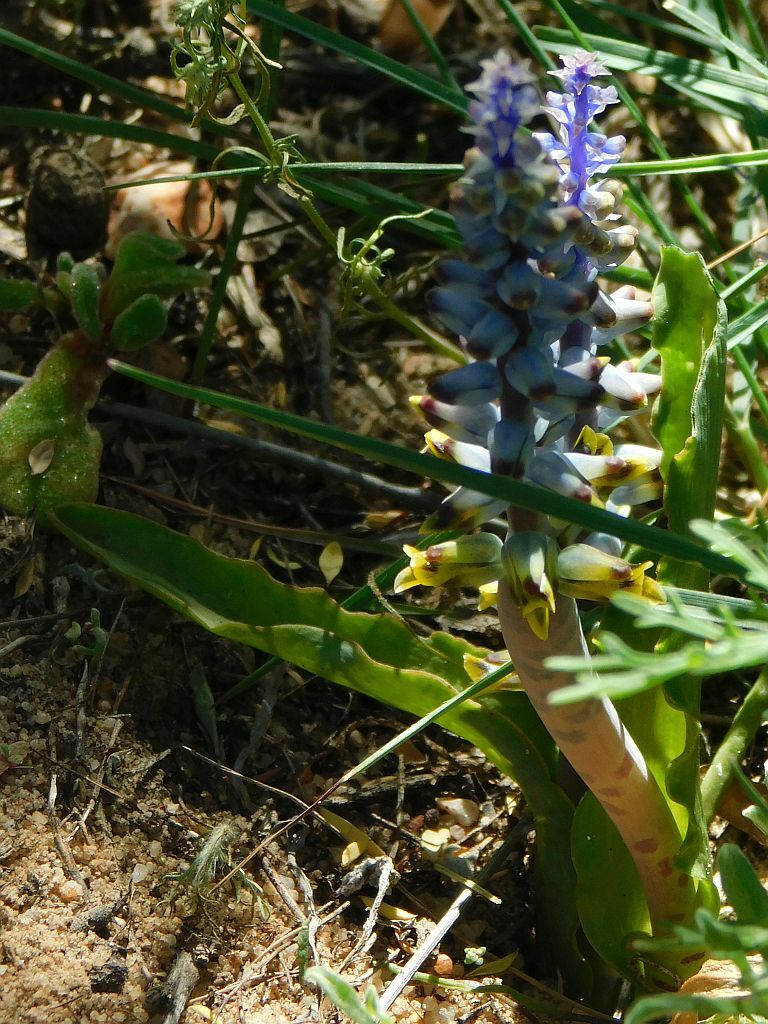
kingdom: Plantae
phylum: Tracheophyta
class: Liliopsida
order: Asparagales
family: Asparagaceae
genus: Lachenalia
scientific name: Lachenalia mutabilis
